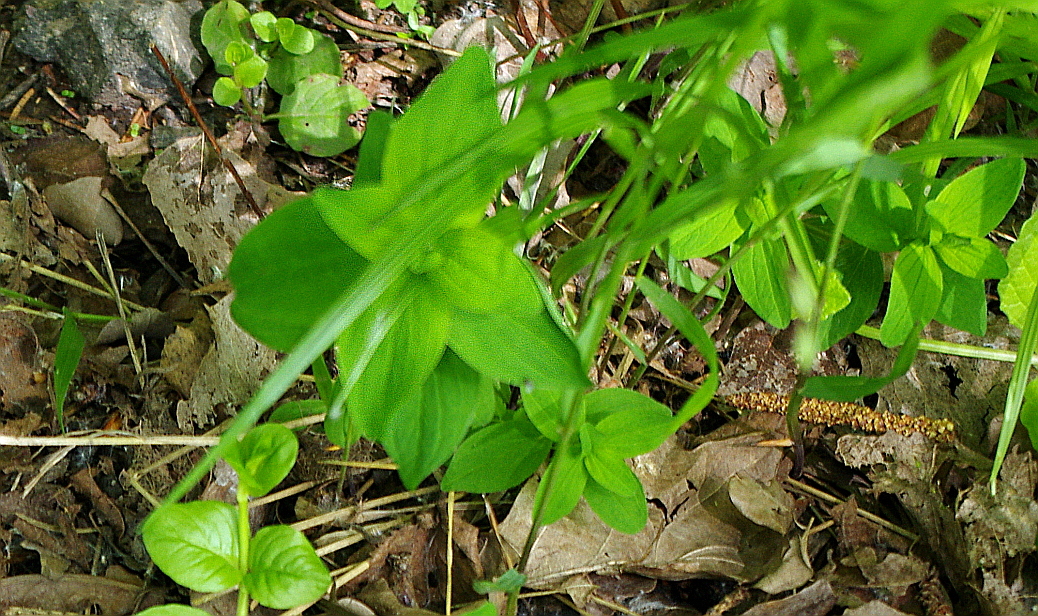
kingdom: Plantae
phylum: Tracheophyta
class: Magnoliopsida
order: Caryophyllales
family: Caryophyllaceae
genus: Moehringia
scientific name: Moehringia trinervia
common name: Three-nerved sandwort
